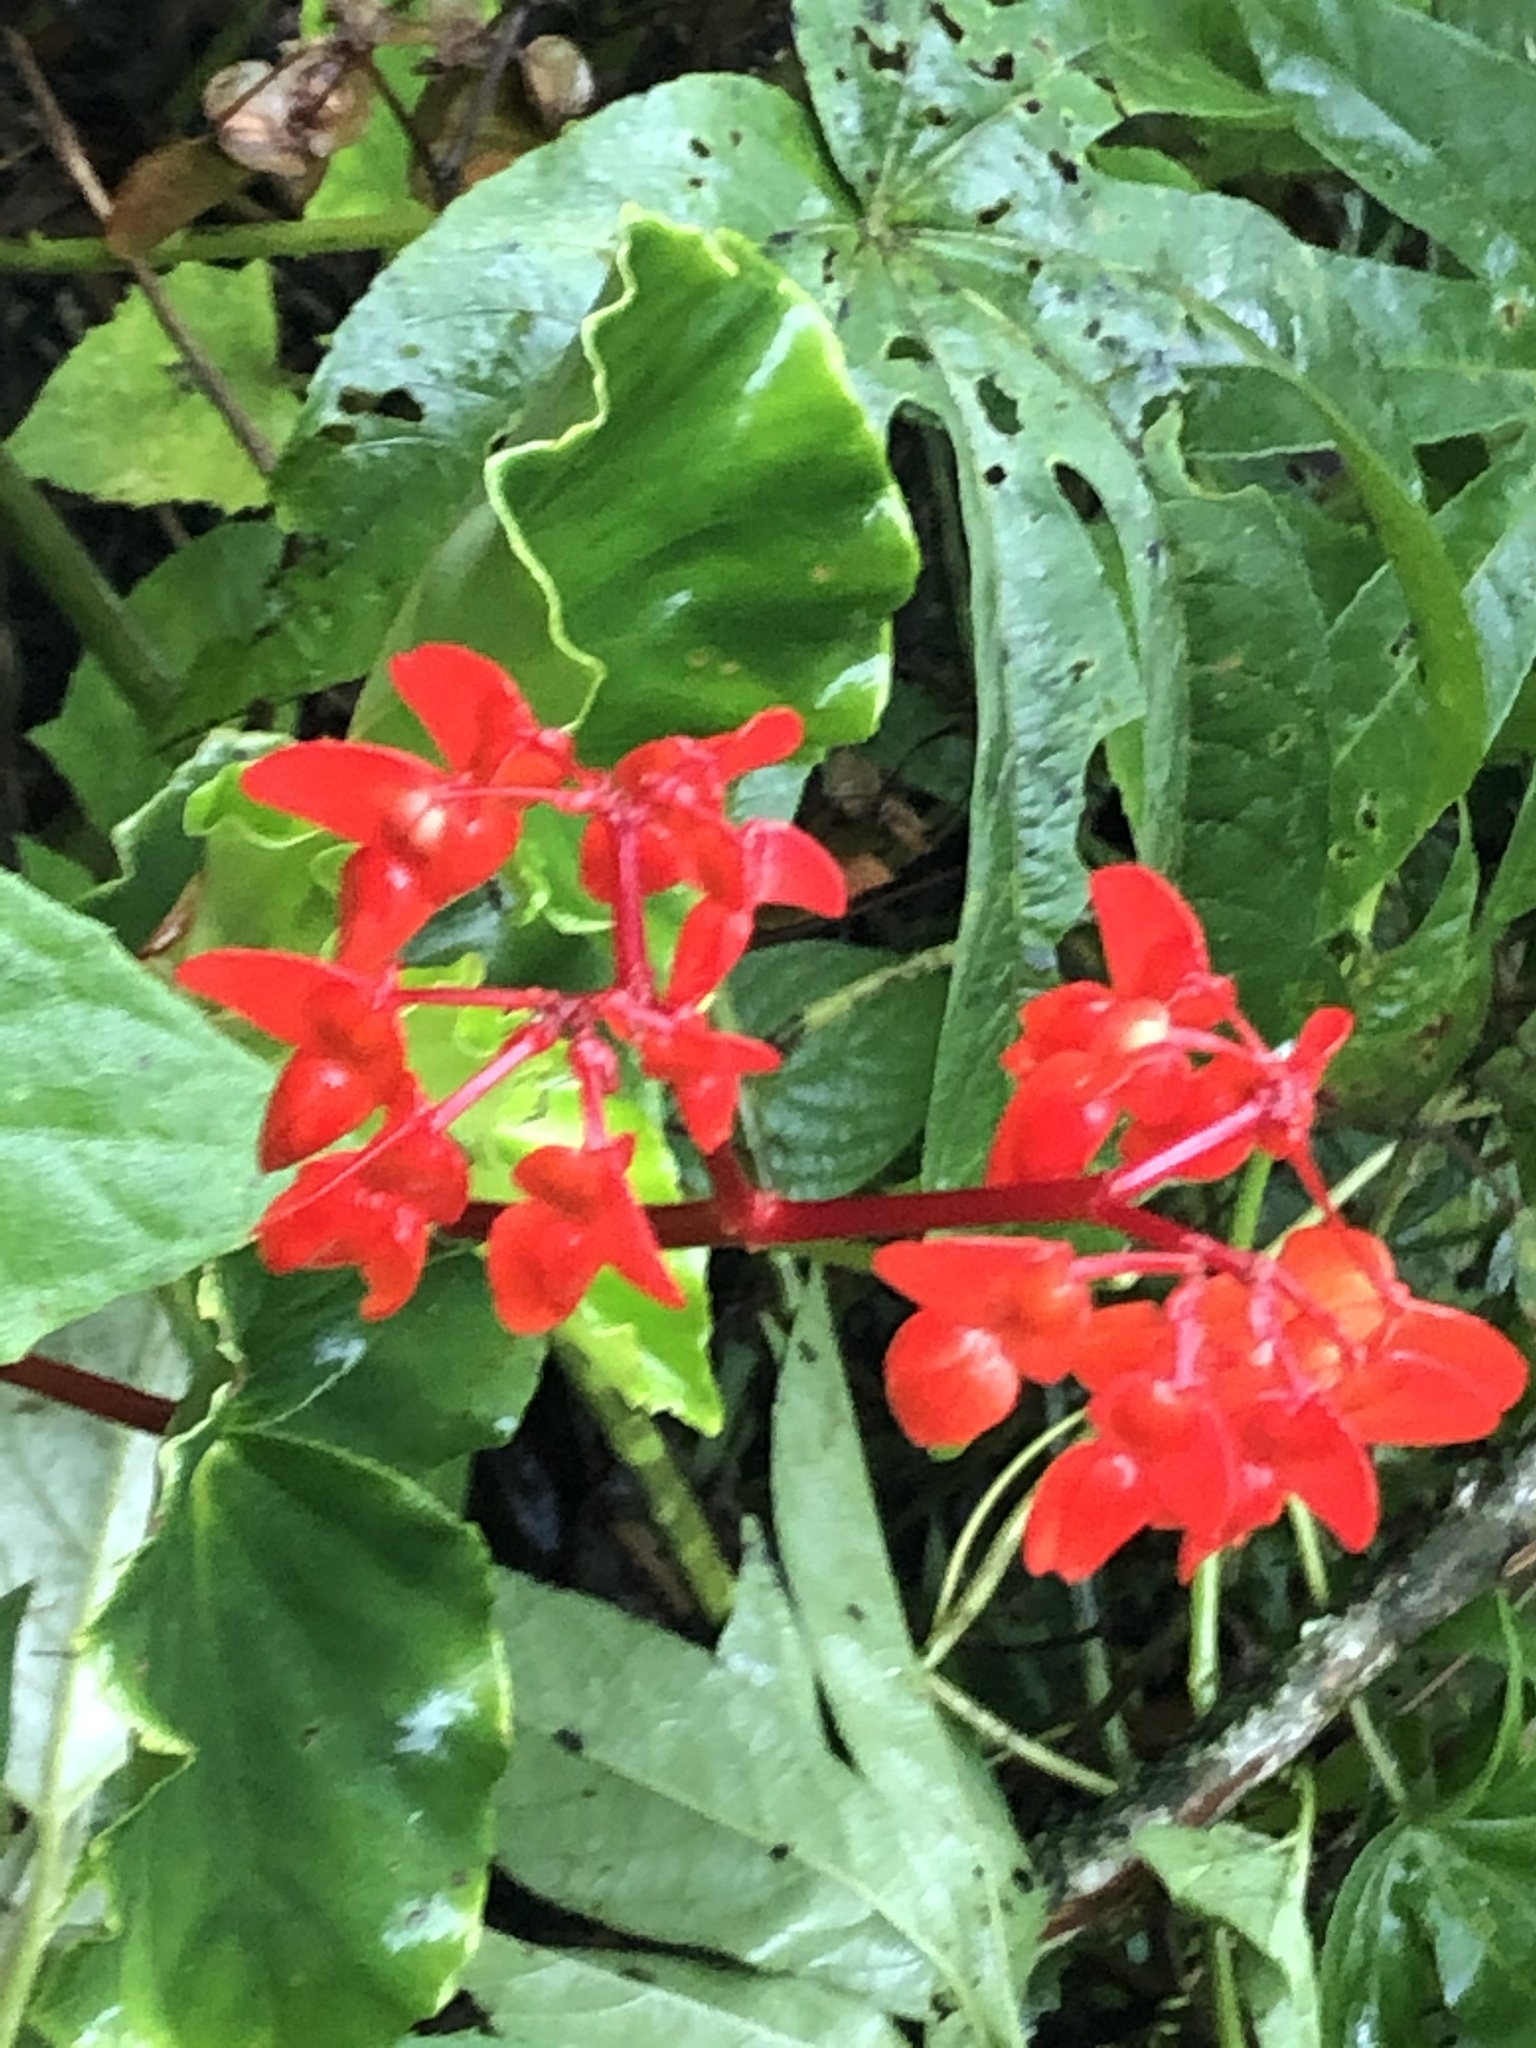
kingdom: Plantae
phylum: Tracheophyta
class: Magnoliopsida
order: Cucurbitales
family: Begoniaceae
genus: Begonia
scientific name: Begonia stenotepala
